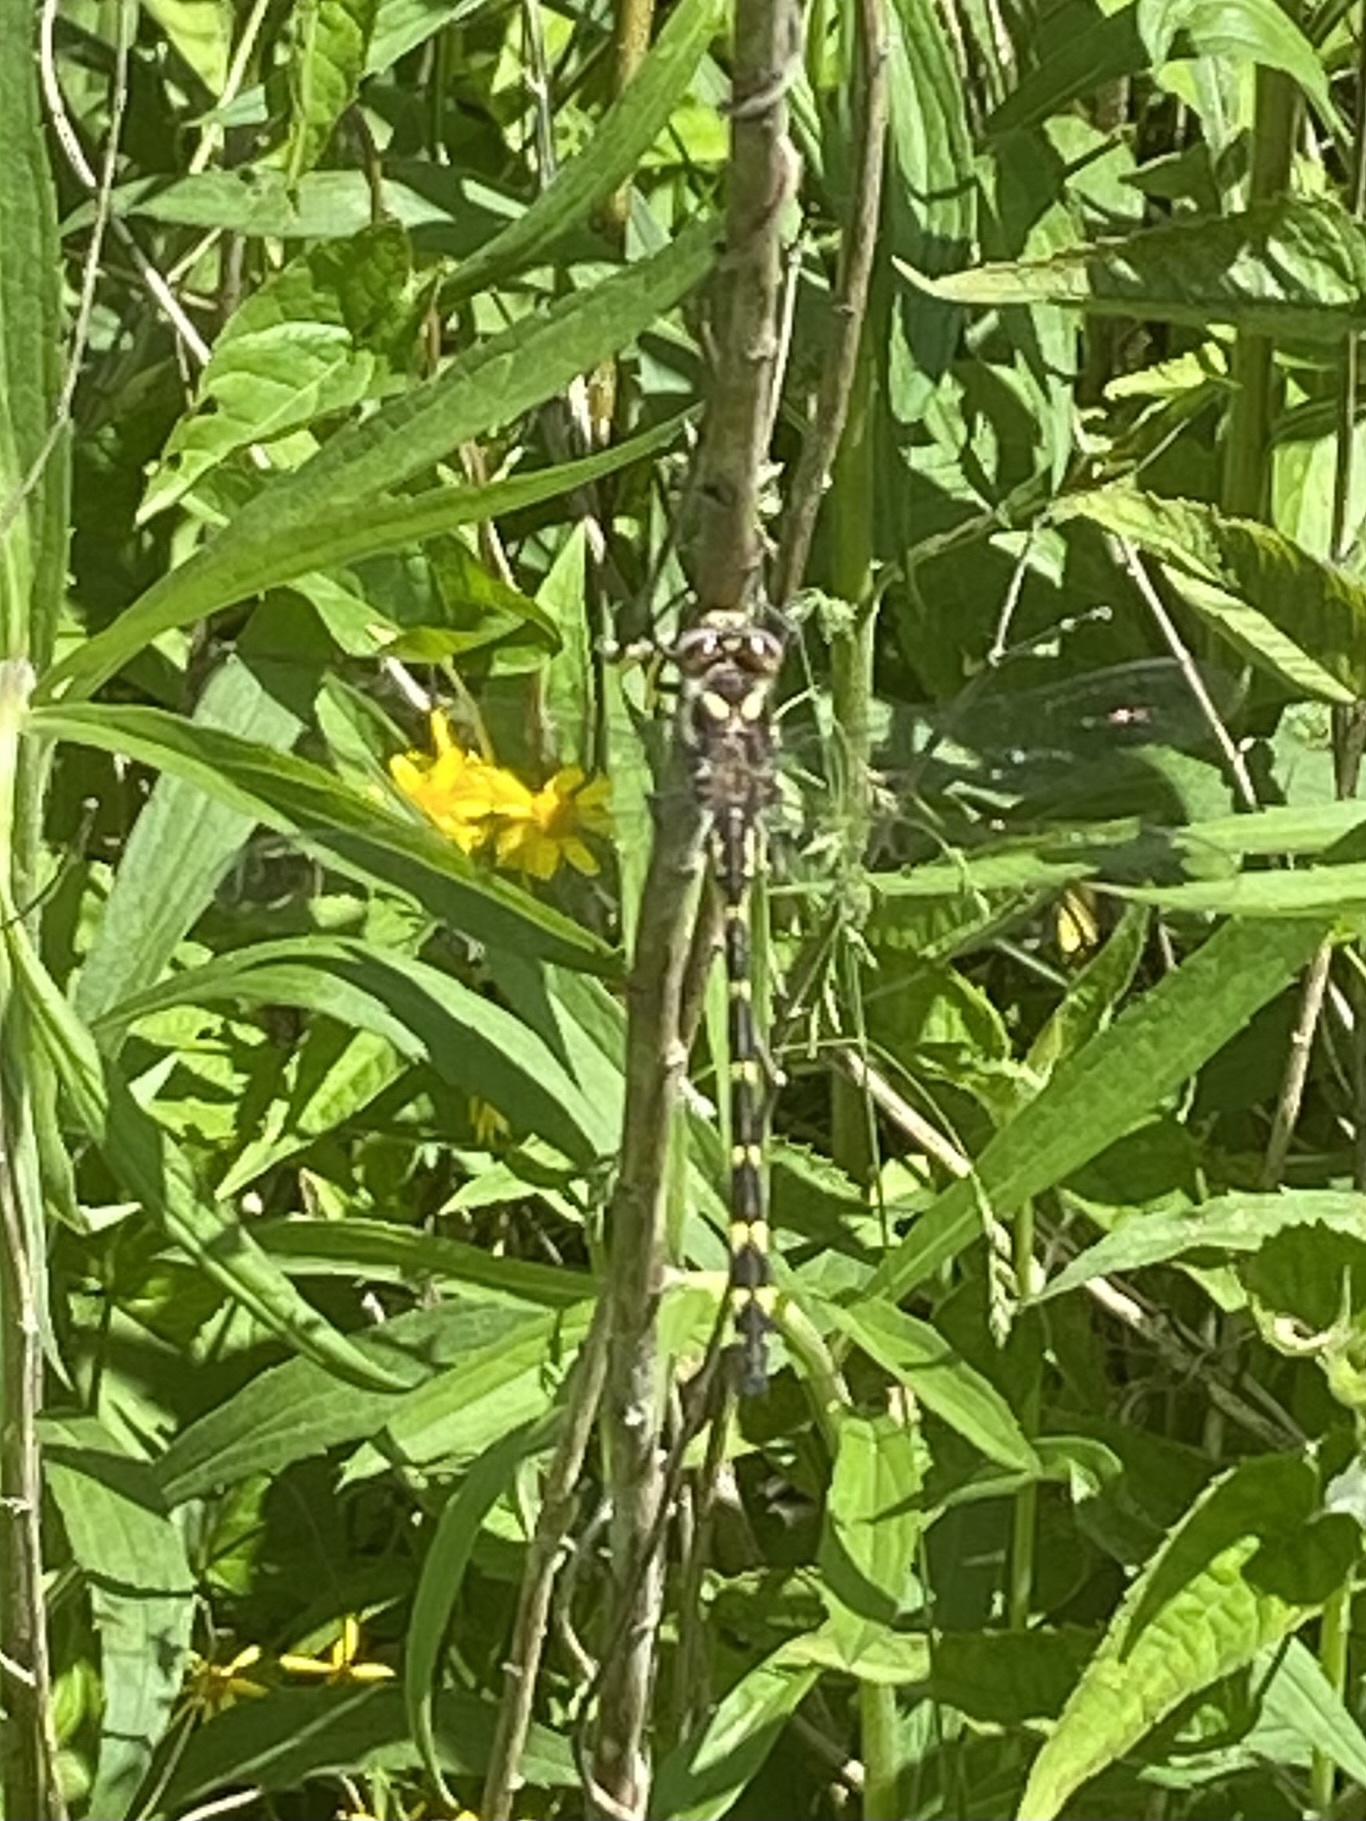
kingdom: Animalia
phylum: Arthropoda
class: Insecta
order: Odonata
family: Cordulegastridae
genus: Cordulegaster
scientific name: Cordulegaster bilineata
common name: Brown spiketail
